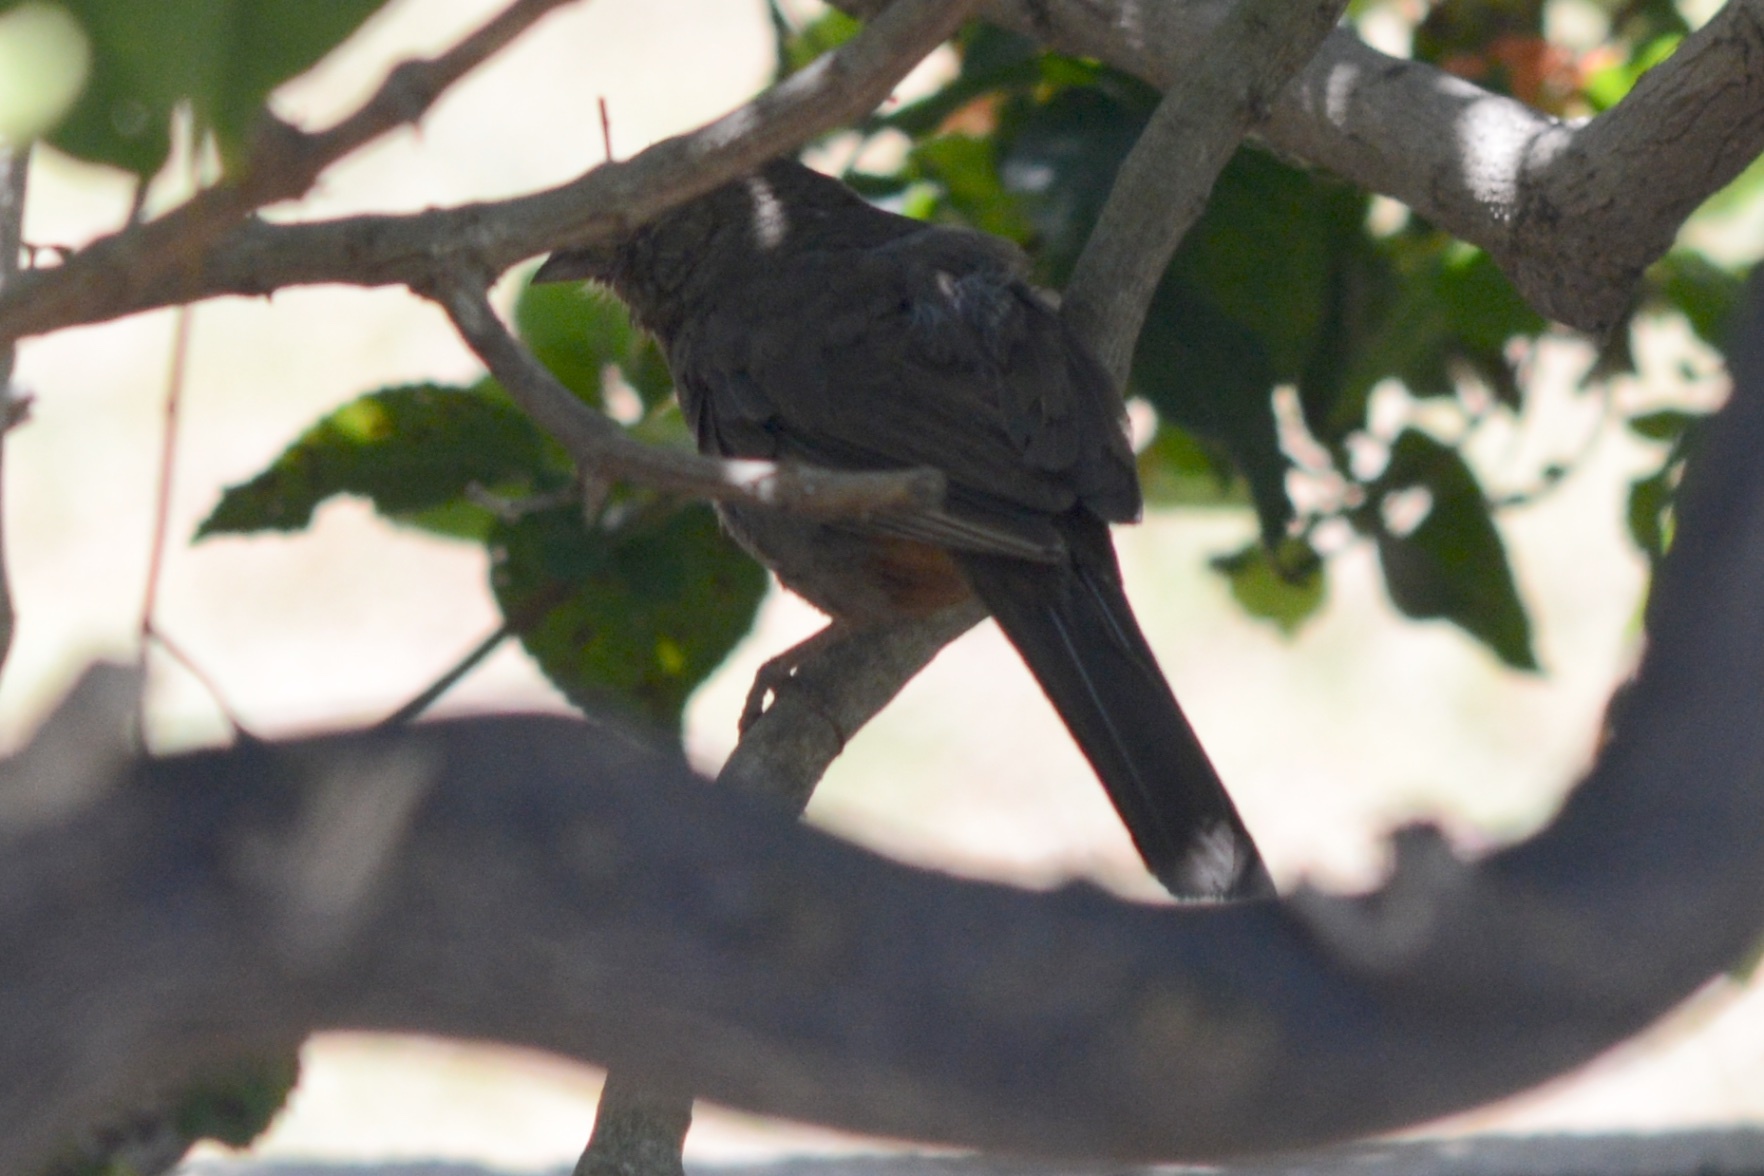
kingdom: Animalia
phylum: Chordata
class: Aves
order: Passeriformes
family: Passerellidae
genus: Melozone
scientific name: Melozone crissalis
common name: California towhee
